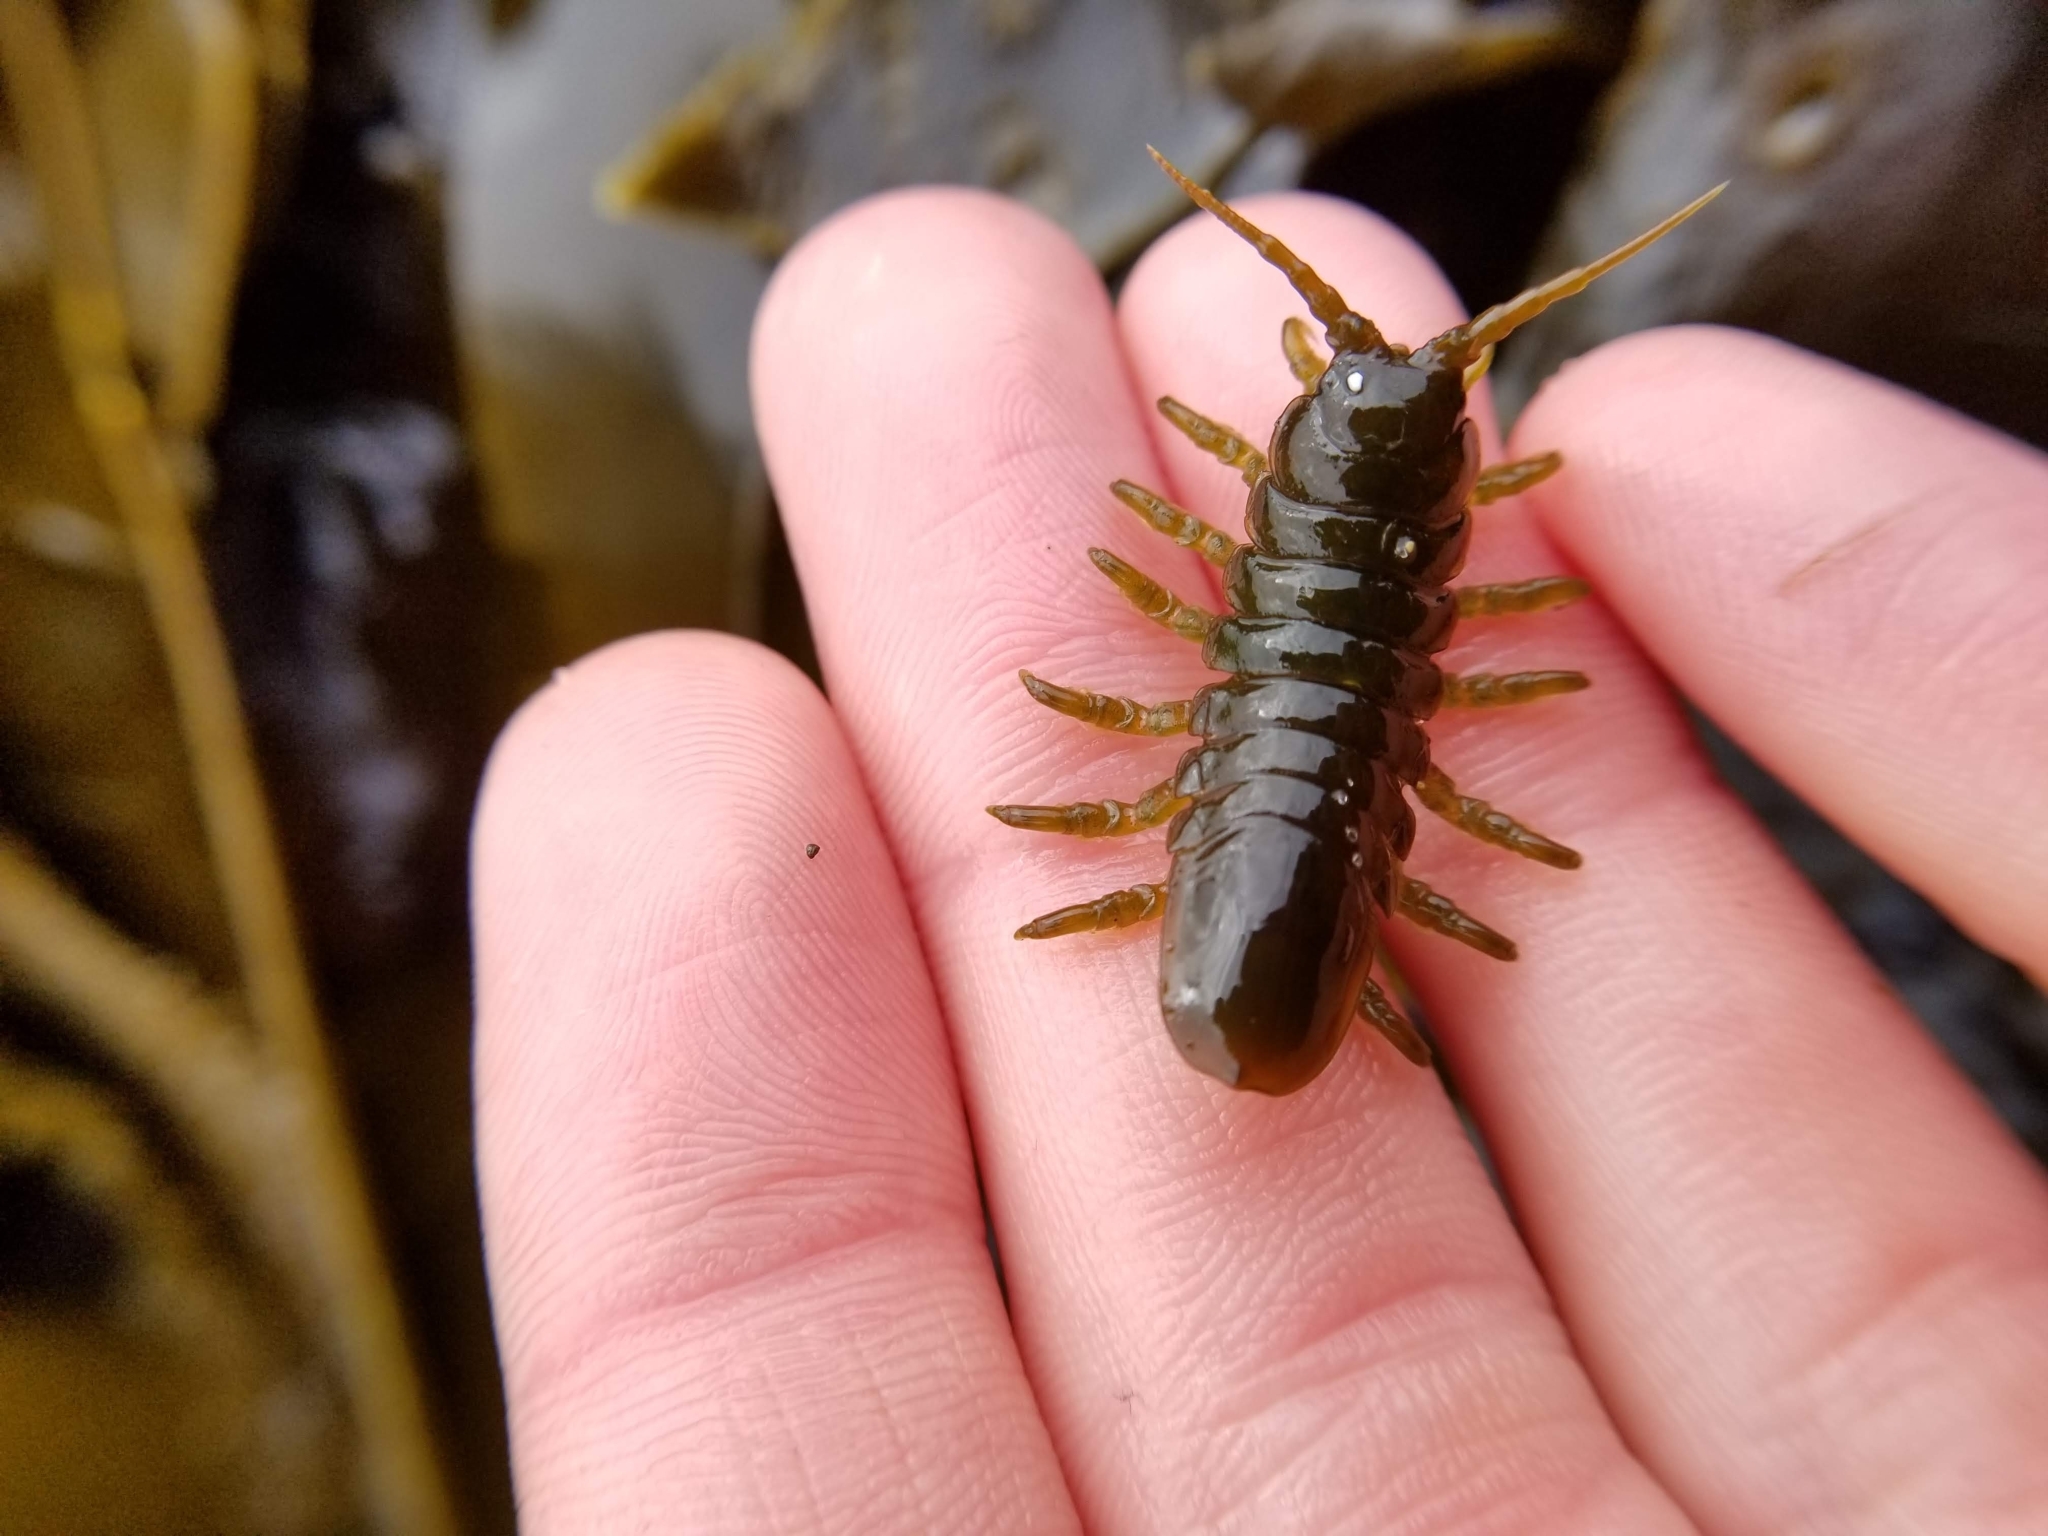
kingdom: Animalia
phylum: Arthropoda
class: Malacostraca
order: Isopoda
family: Idoteidae
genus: Pentidotea
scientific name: Pentidotea wosnesenskii
